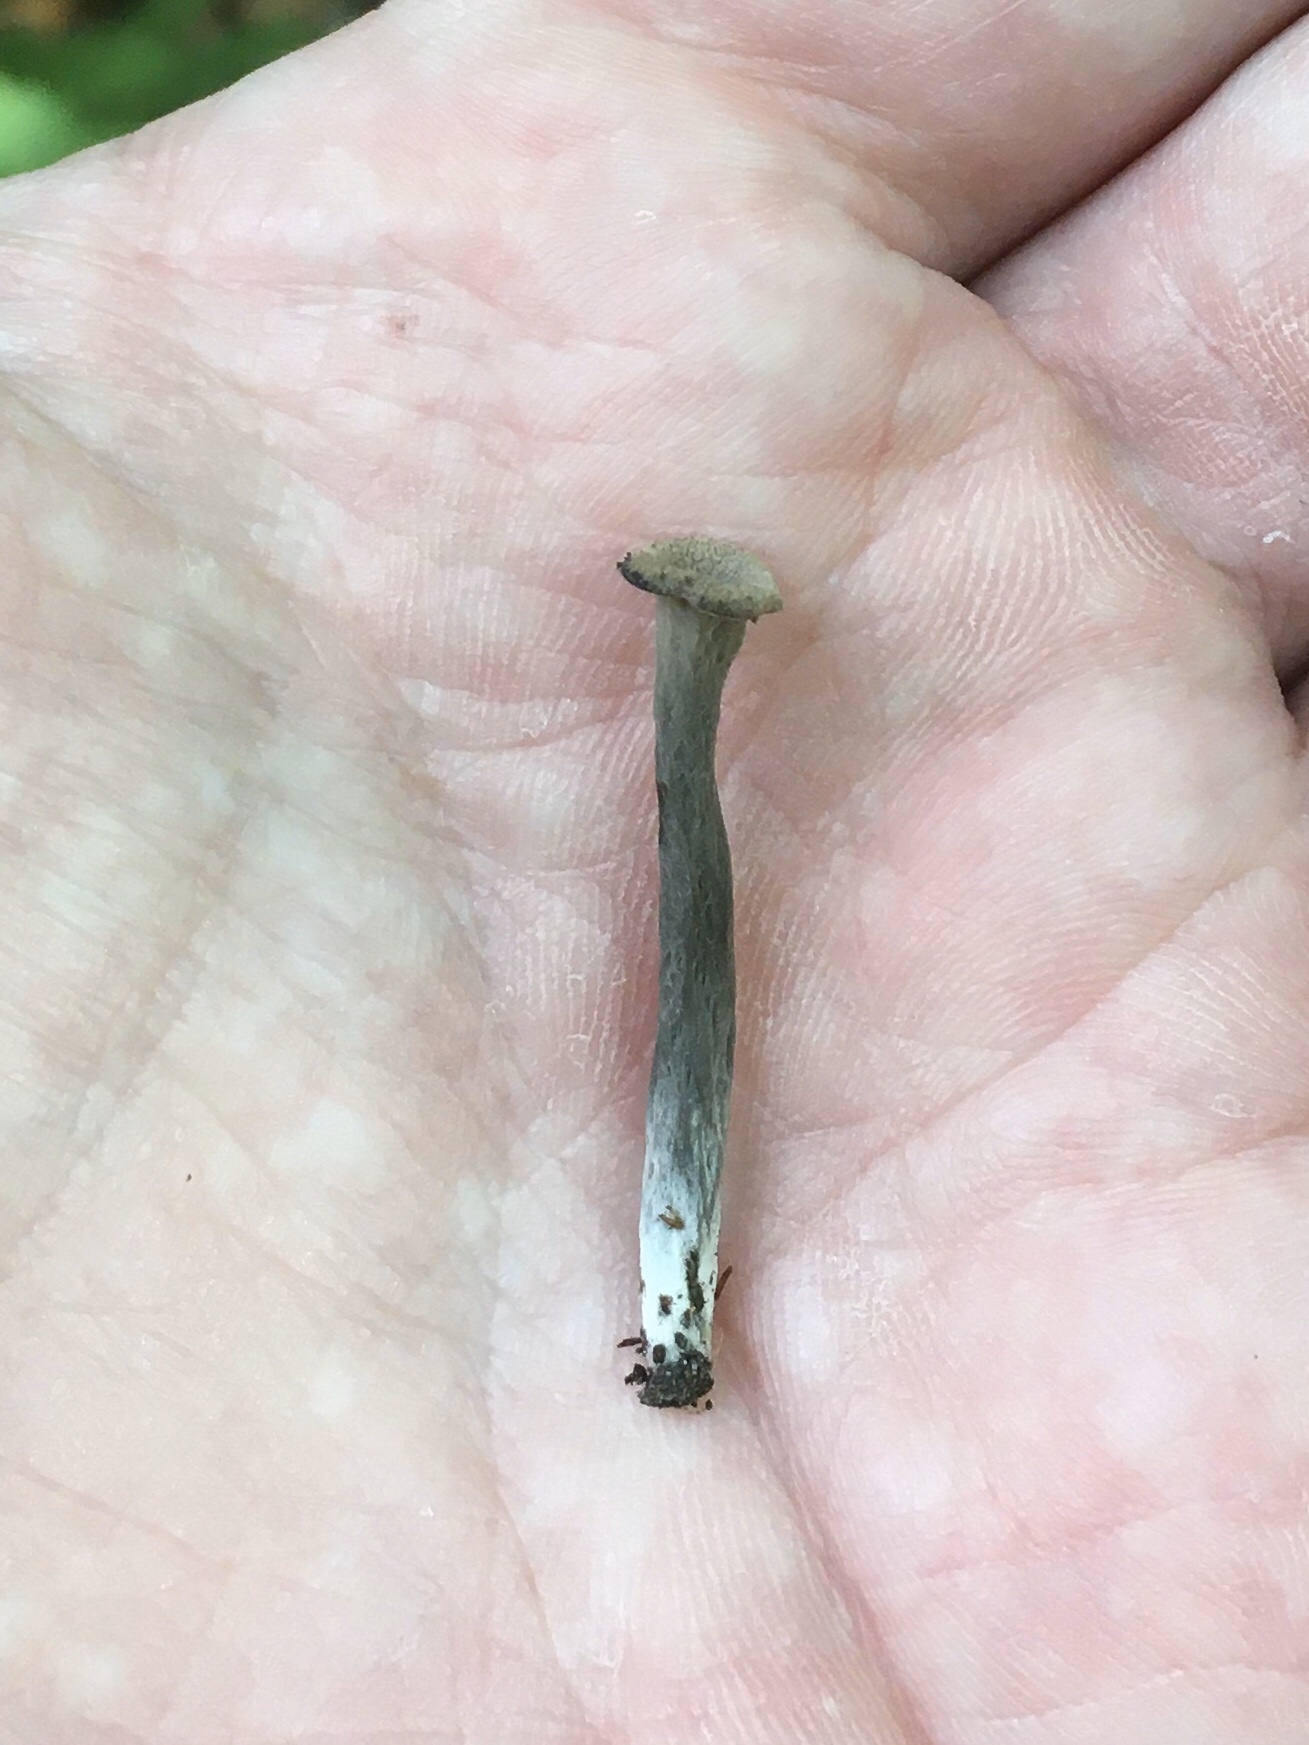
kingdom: Fungi
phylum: Basidiomycota
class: Agaricomycetes
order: Cantharellales
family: Hydnaceae
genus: Craterellus
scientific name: Craterellus cornucopioides
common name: Horn of plenty
